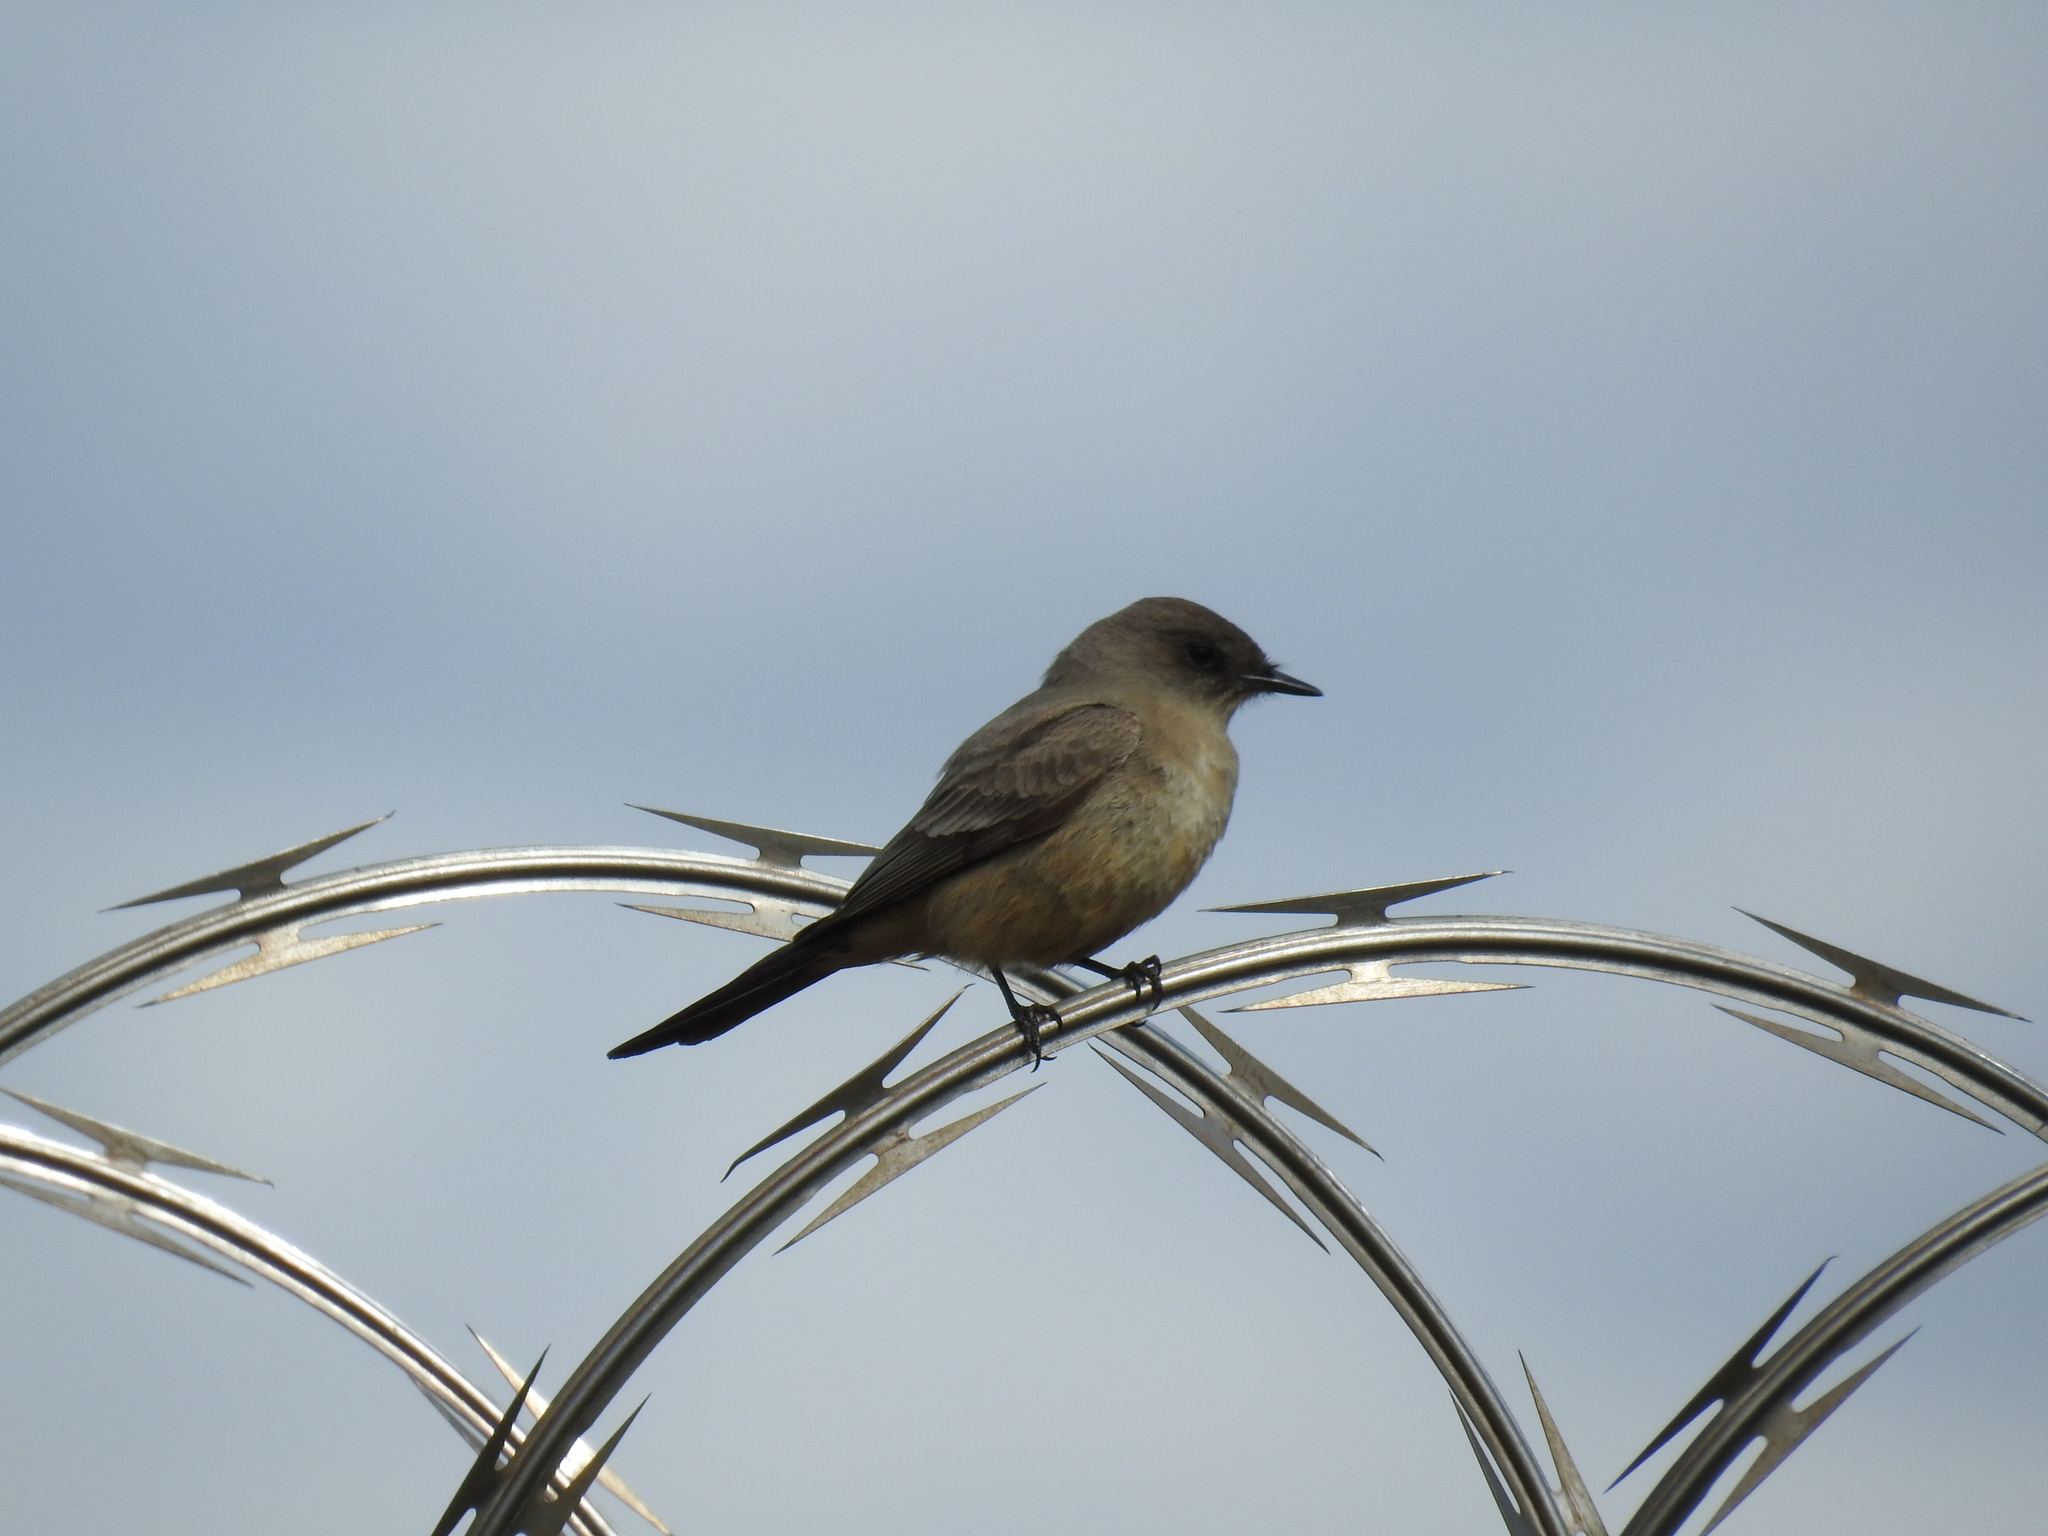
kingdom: Animalia
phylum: Chordata
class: Aves
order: Passeriformes
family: Tyrannidae
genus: Sayornis
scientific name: Sayornis saya
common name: Say's phoebe
